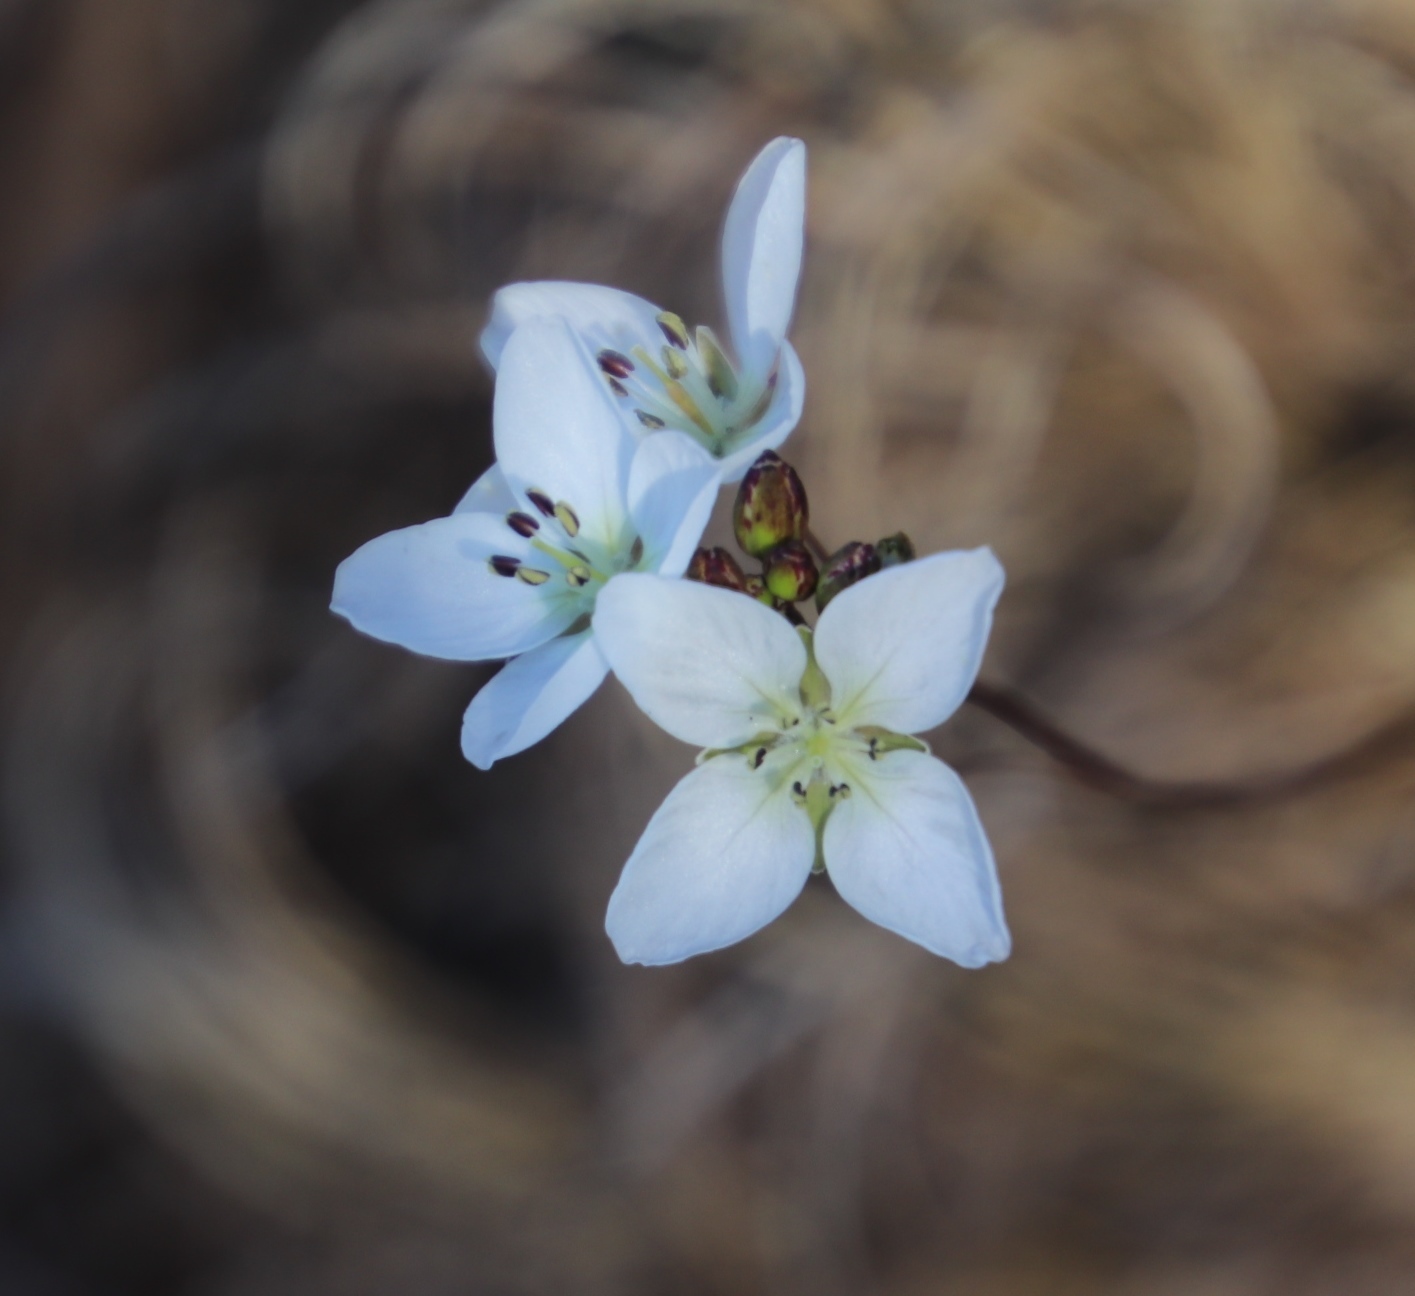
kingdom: Plantae
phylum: Tracheophyta
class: Magnoliopsida
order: Brassicales
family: Brassicaceae
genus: Heliophila
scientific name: Heliophila meyeri
